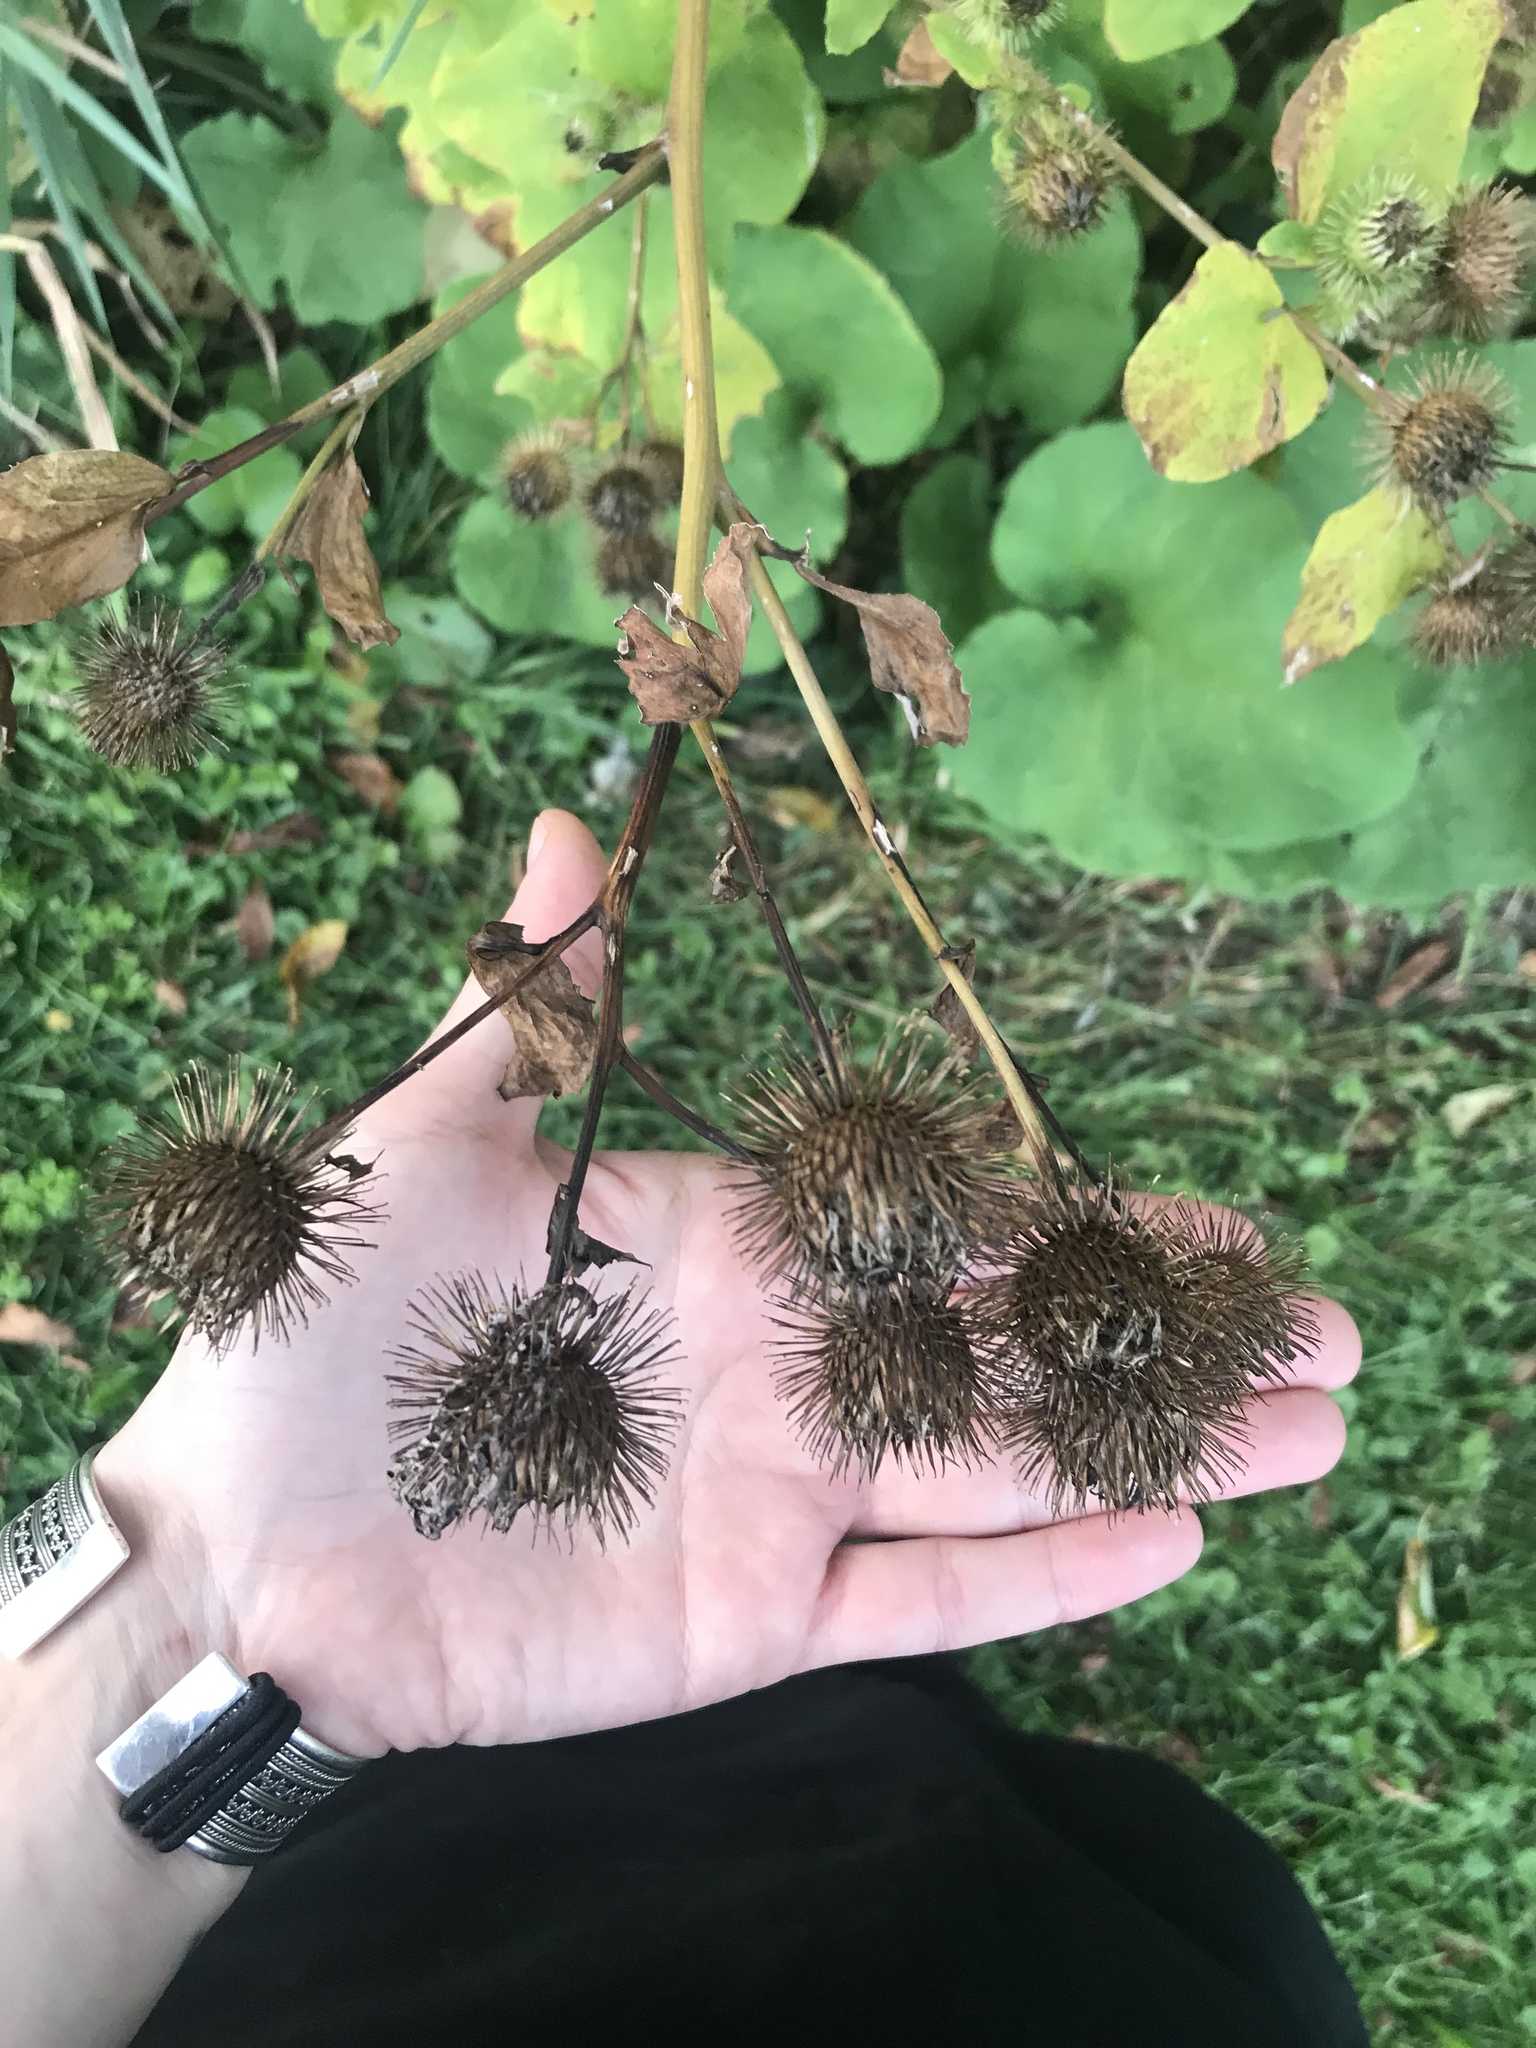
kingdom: Plantae
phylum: Tracheophyta
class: Magnoliopsida
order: Asterales
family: Asteraceae
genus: Arctium
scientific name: Arctium lappa
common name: Greater burdock
